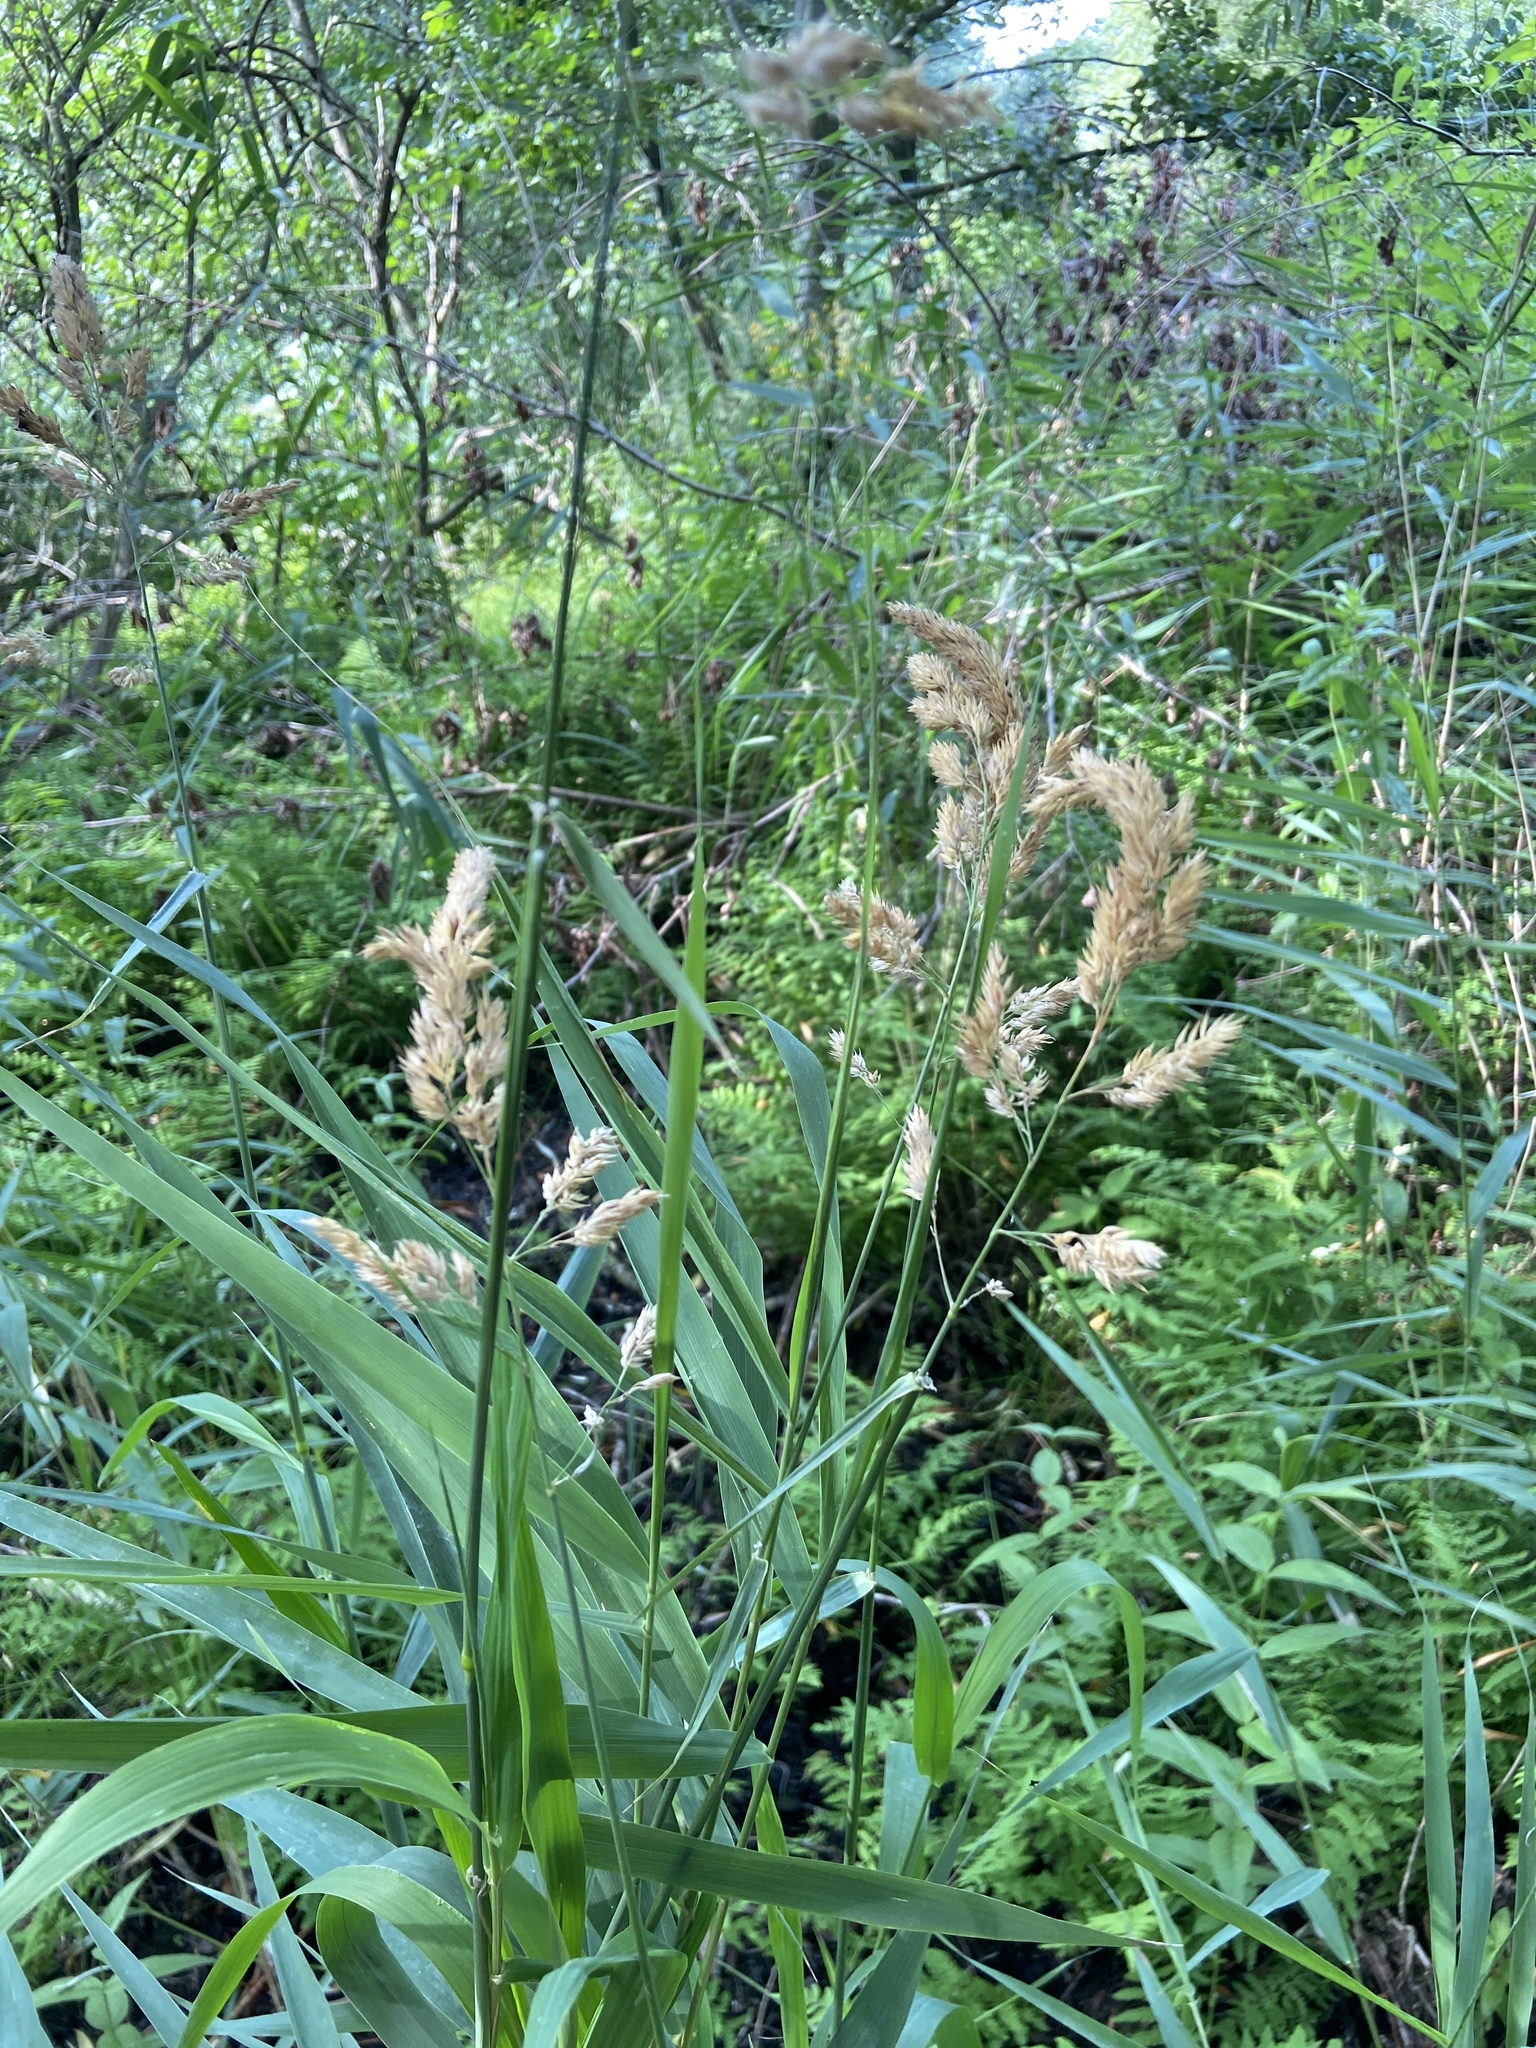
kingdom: Plantae
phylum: Tracheophyta
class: Liliopsida
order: Poales
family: Poaceae
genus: Phalaris
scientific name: Phalaris arundinacea
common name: Reed canary-grass
